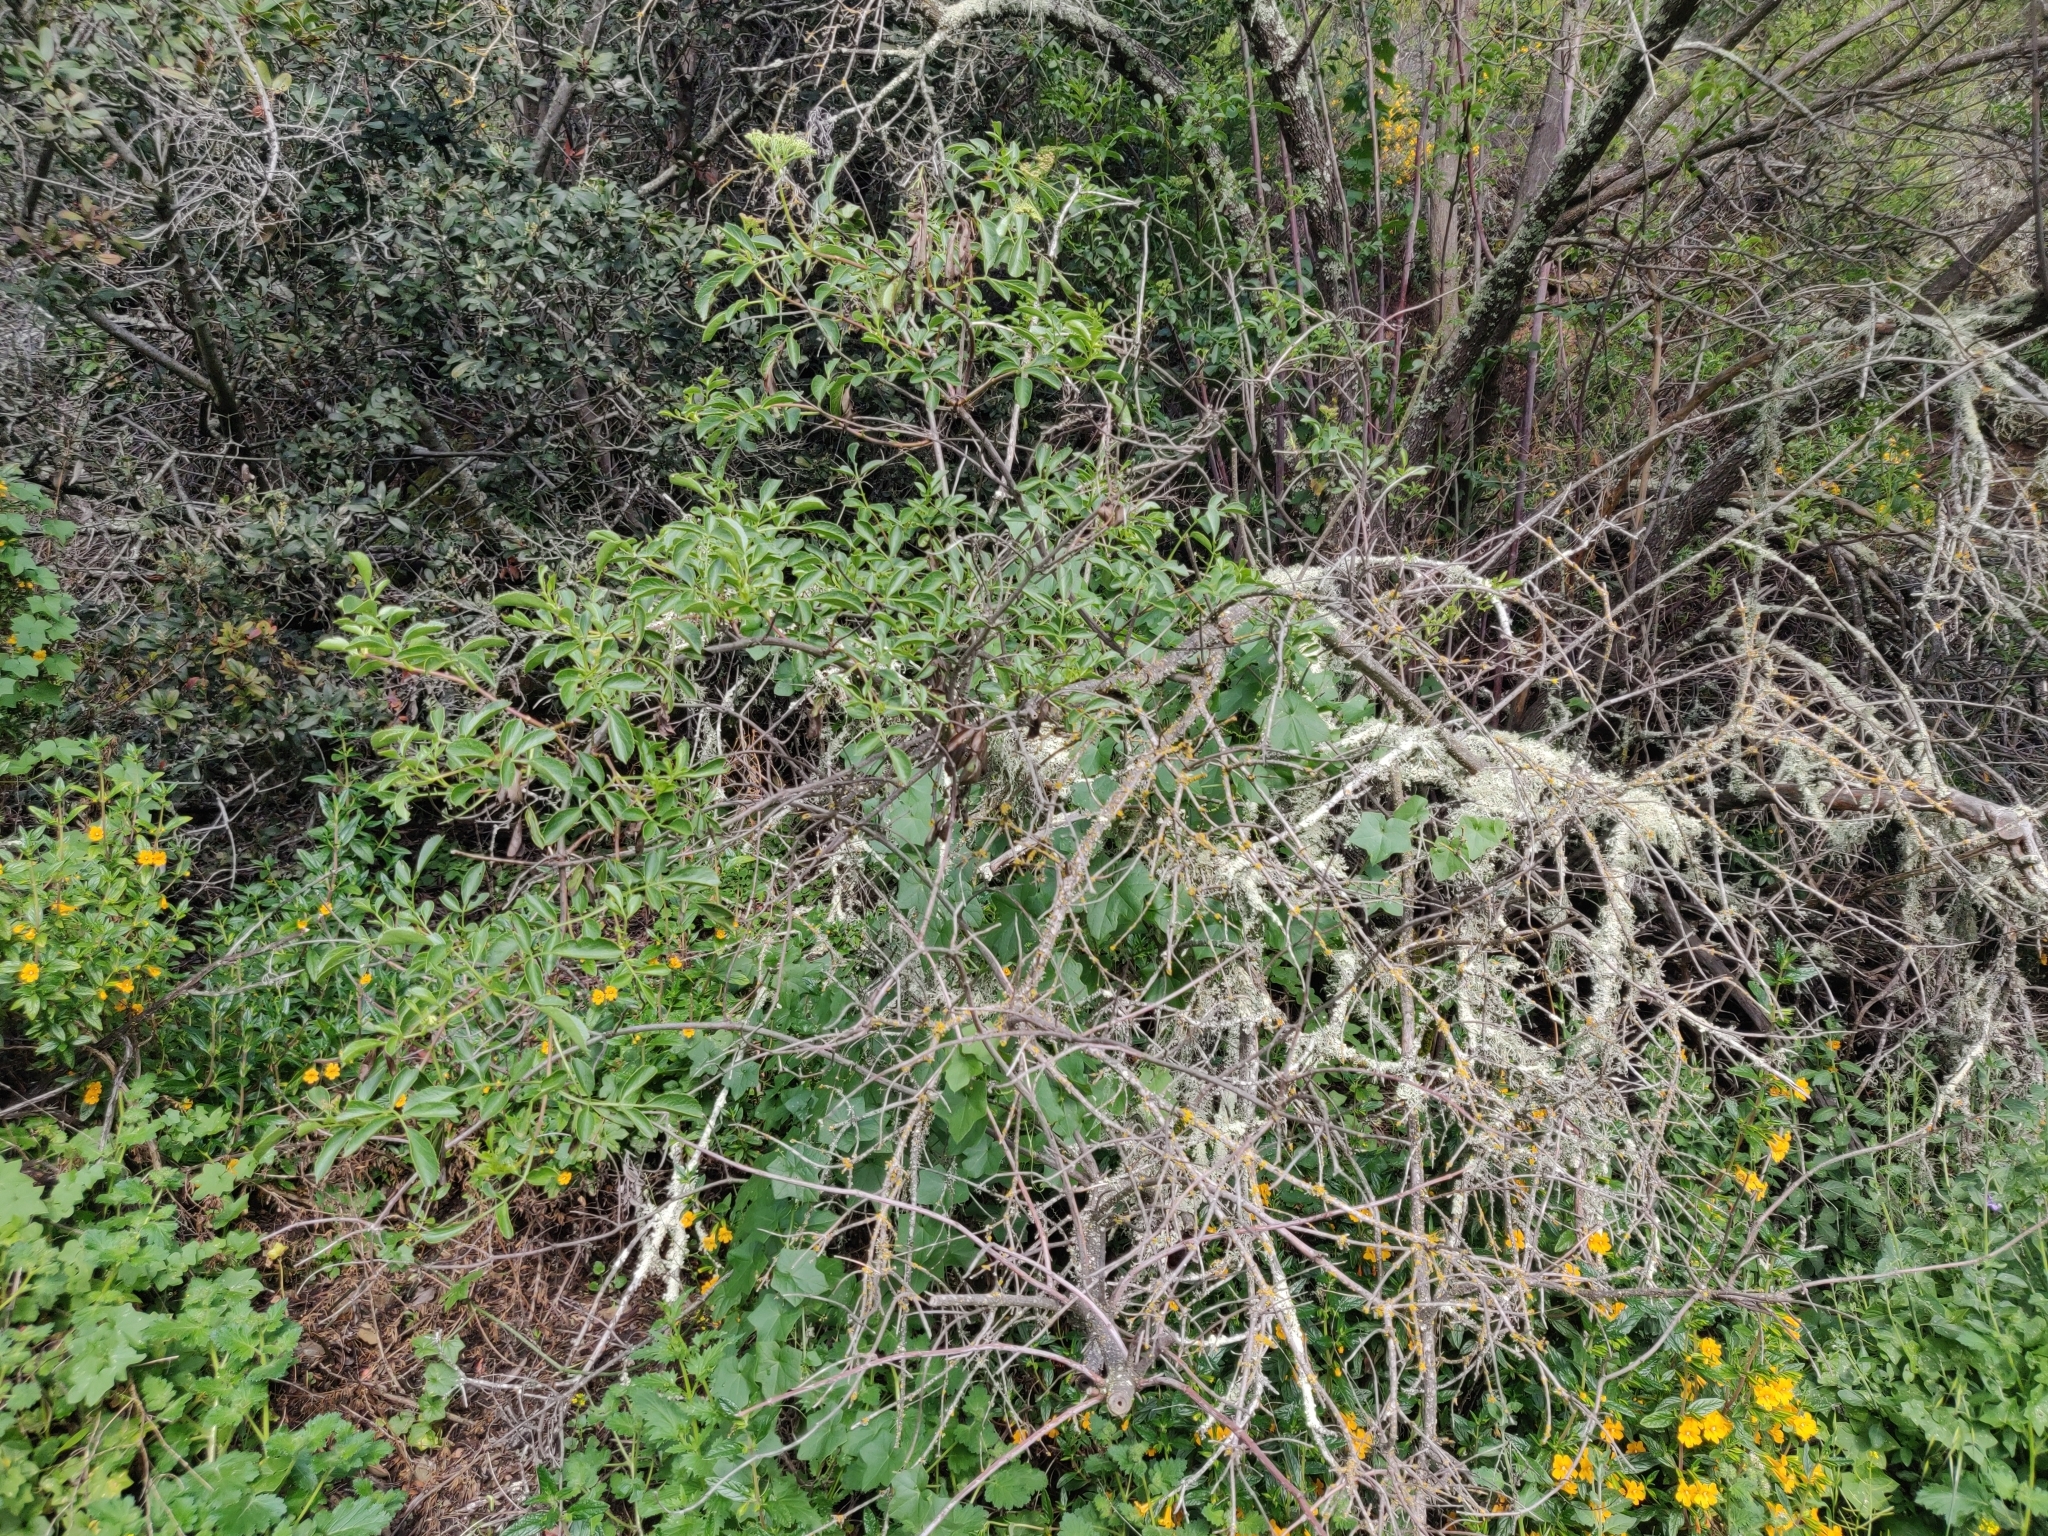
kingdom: Plantae
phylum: Tracheophyta
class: Magnoliopsida
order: Dipsacales
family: Viburnaceae
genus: Sambucus
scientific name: Sambucus cerulea
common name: Blue elder
